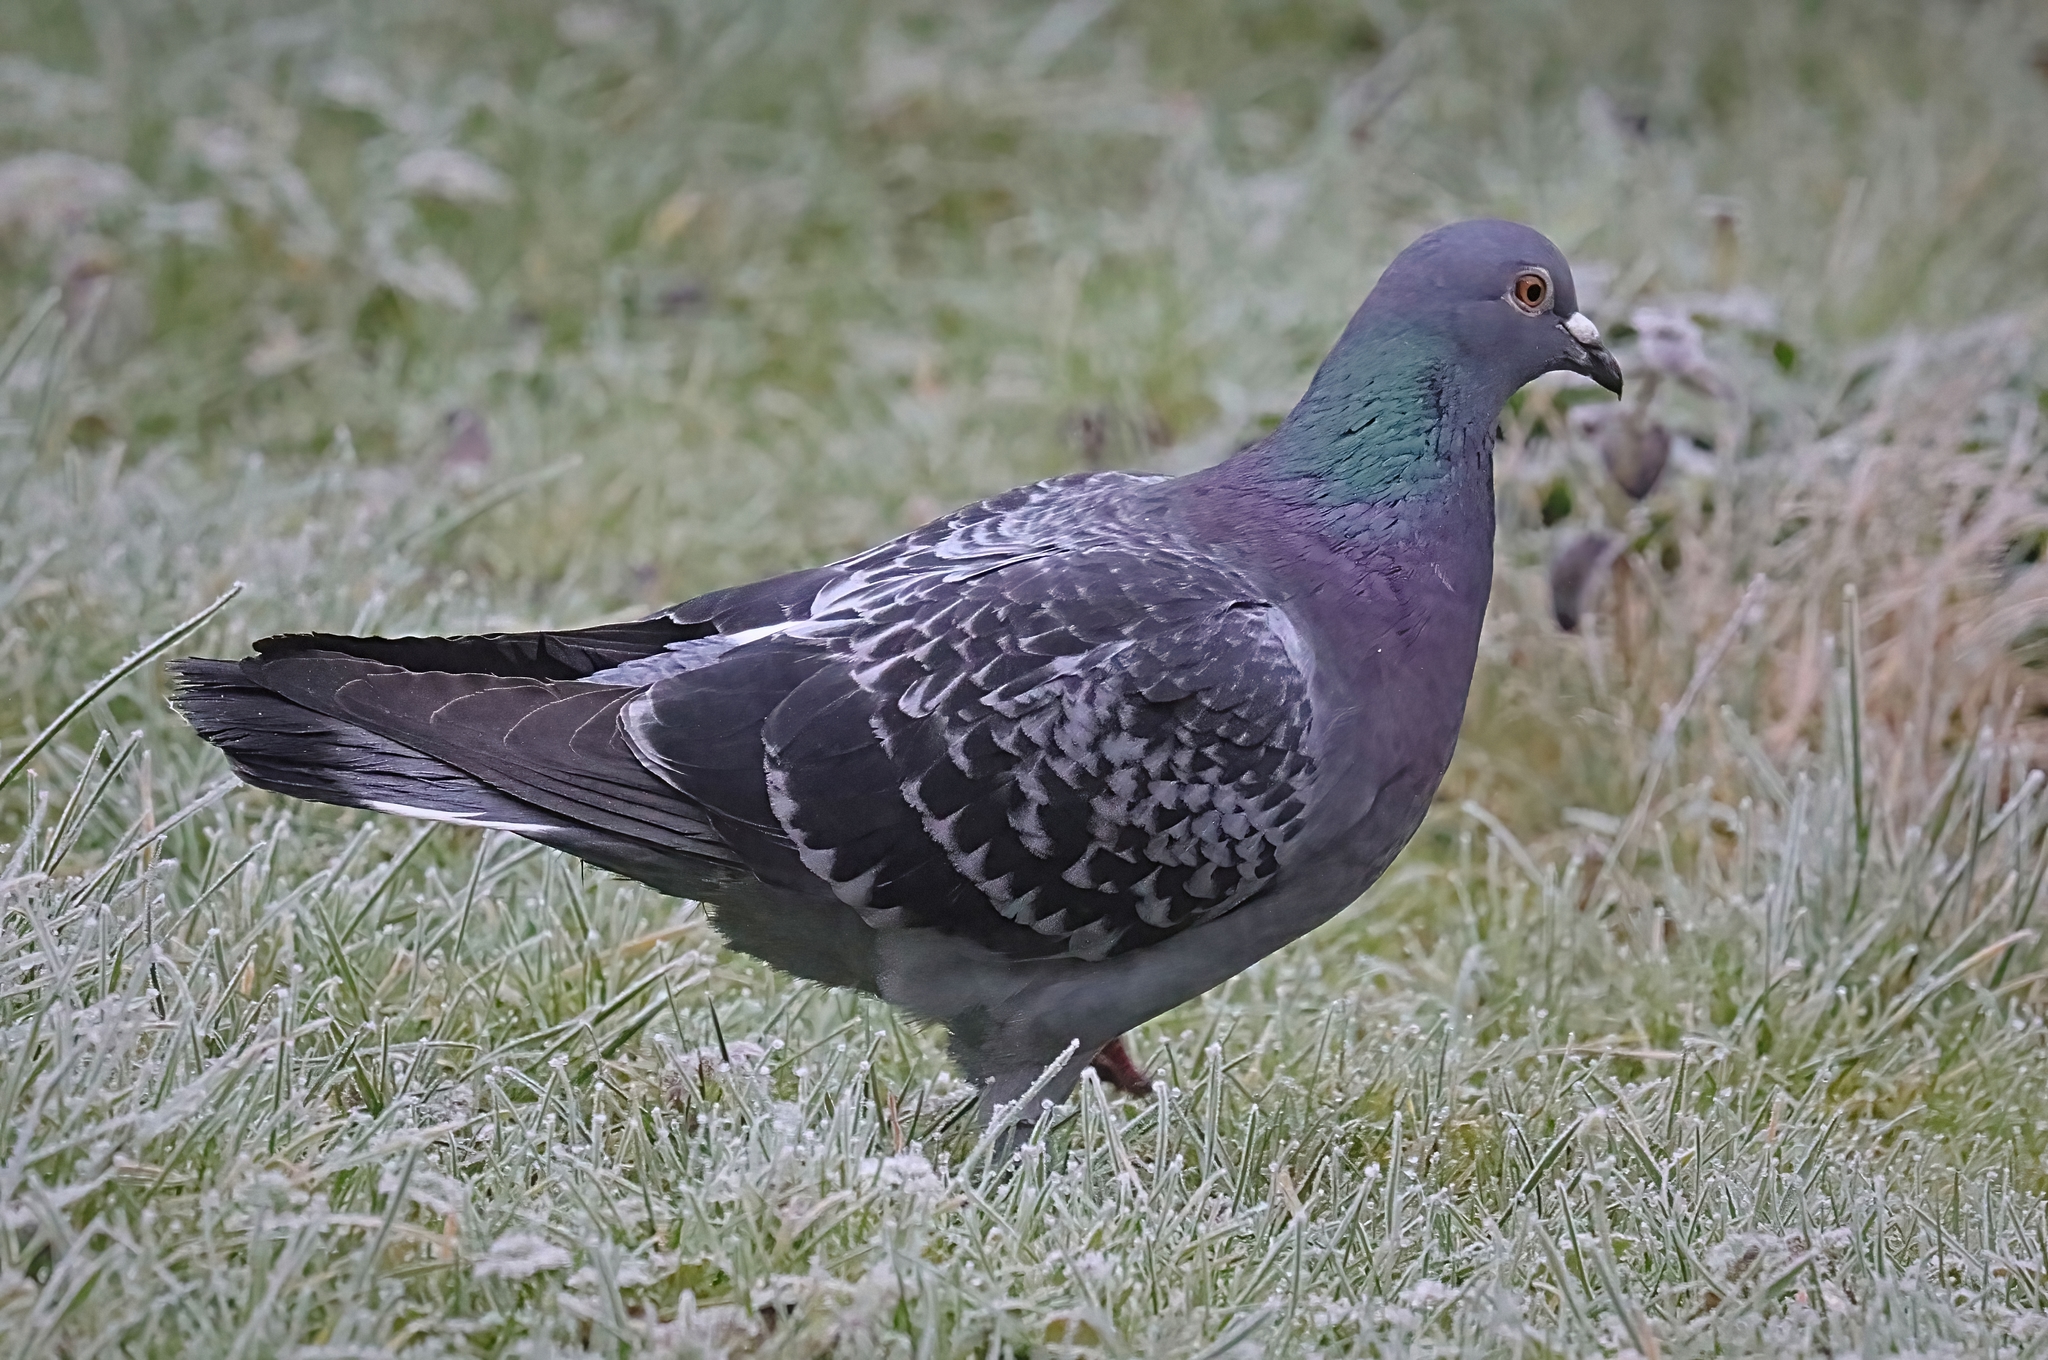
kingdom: Animalia
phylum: Chordata
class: Aves
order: Columbiformes
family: Columbidae
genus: Columba
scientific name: Columba livia
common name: Rock pigeon
